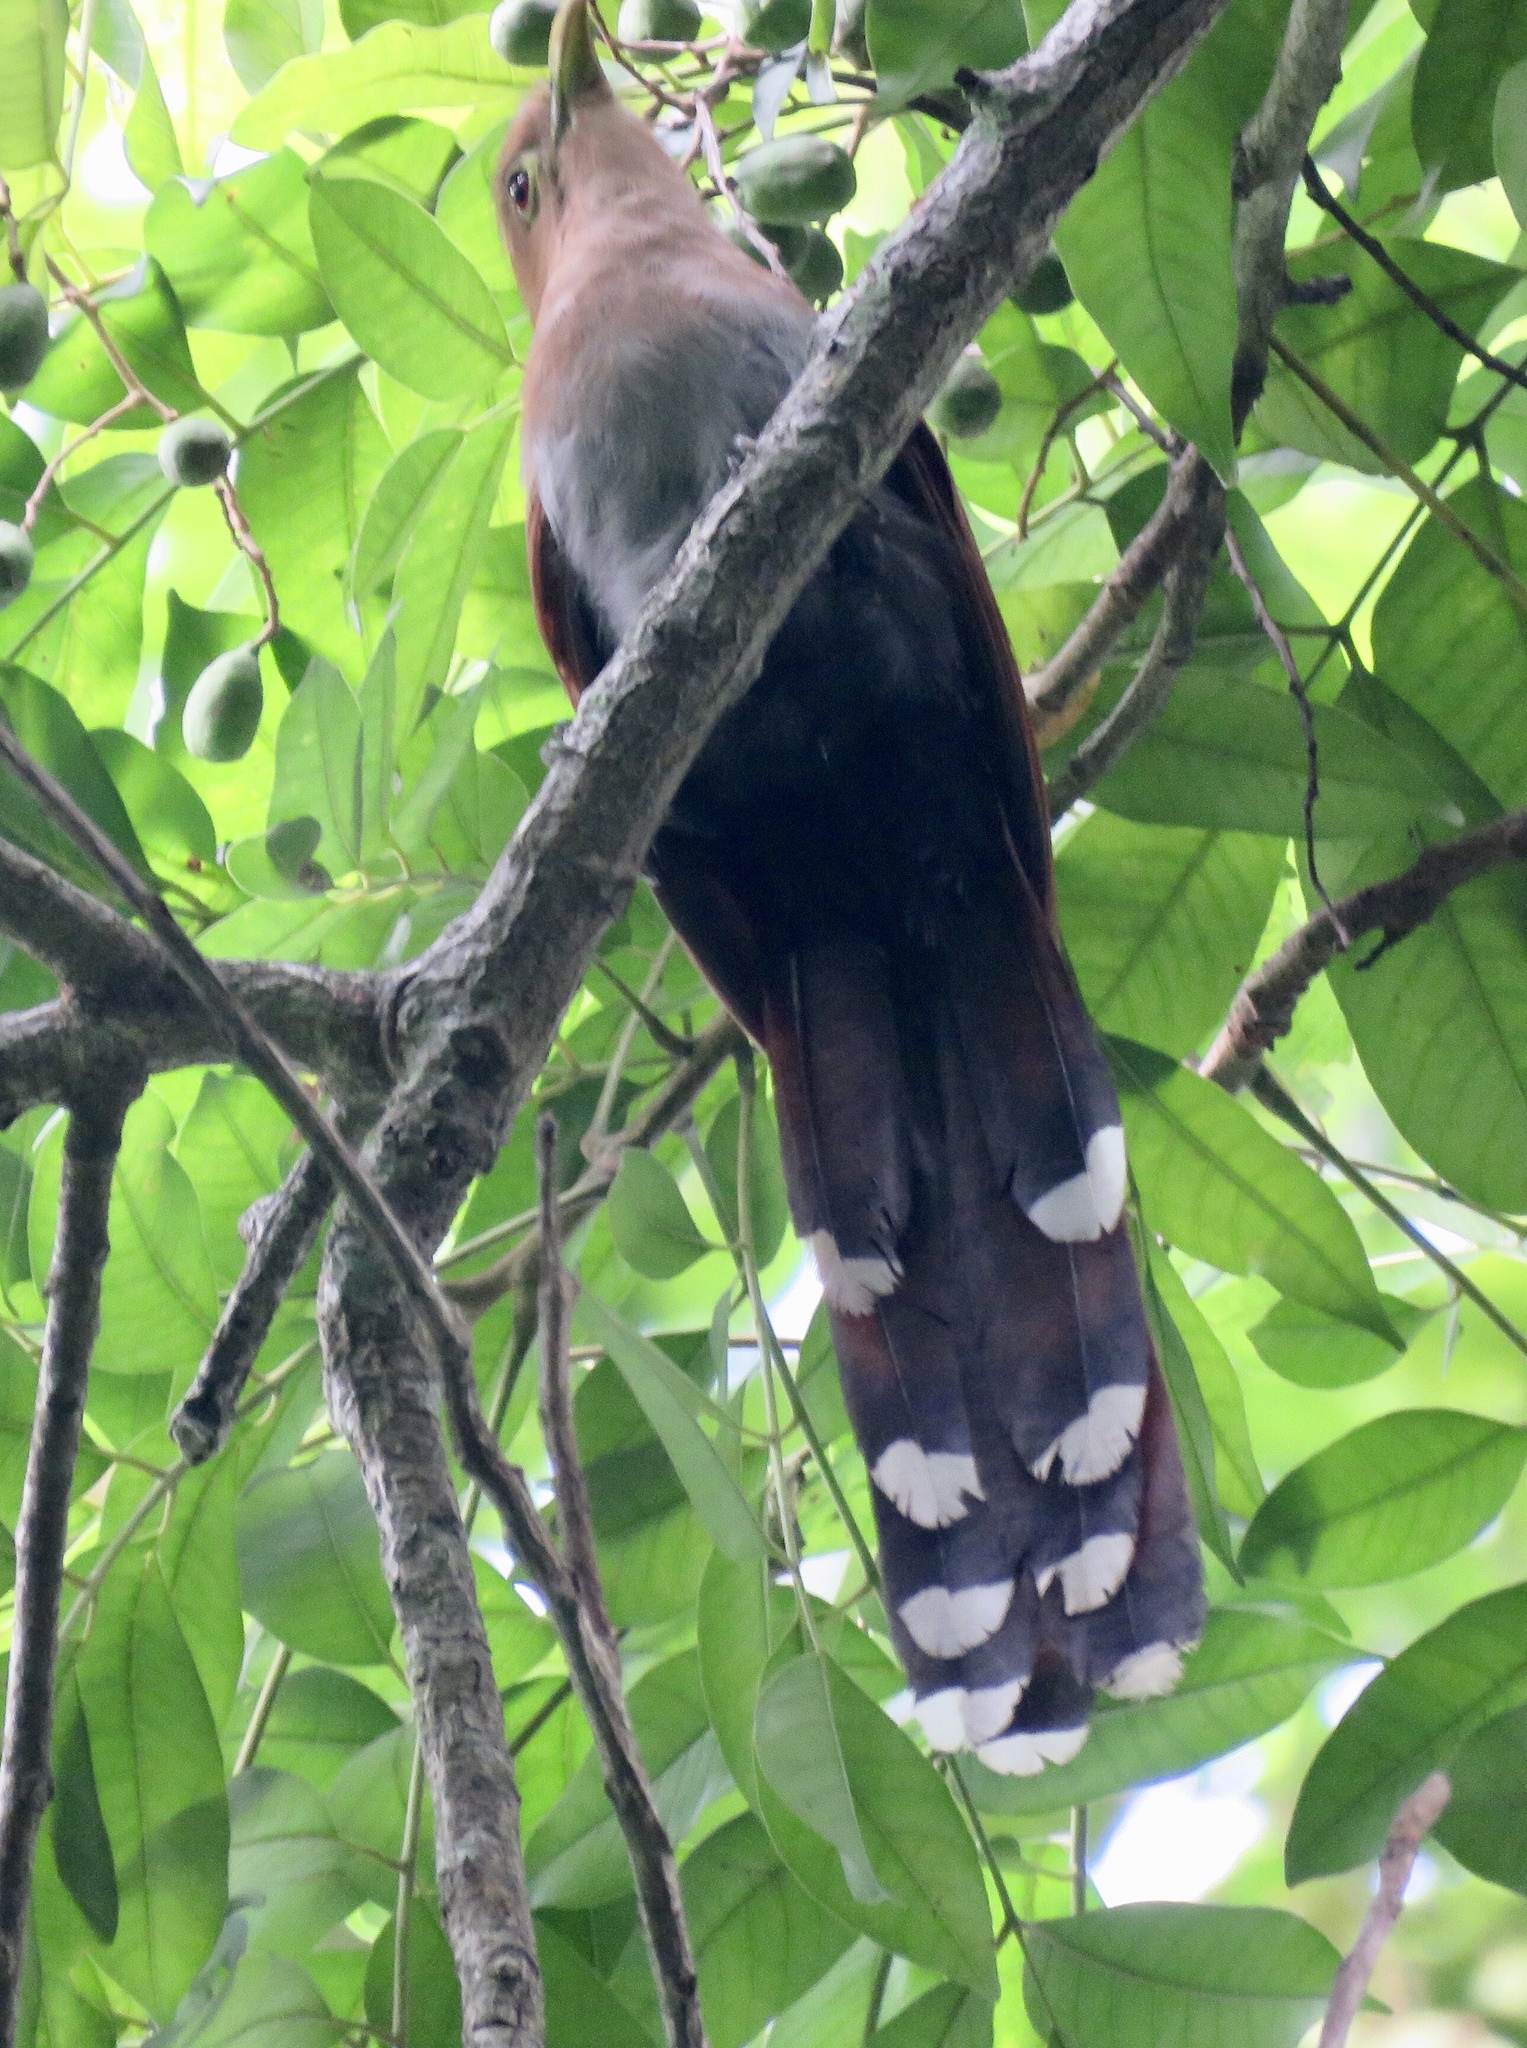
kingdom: Animalia
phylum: Chordata
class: Aves
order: Cuculiformes
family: Cuculidae
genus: Piaya
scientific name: Piaya cayana
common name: Squirrel cuckoo
